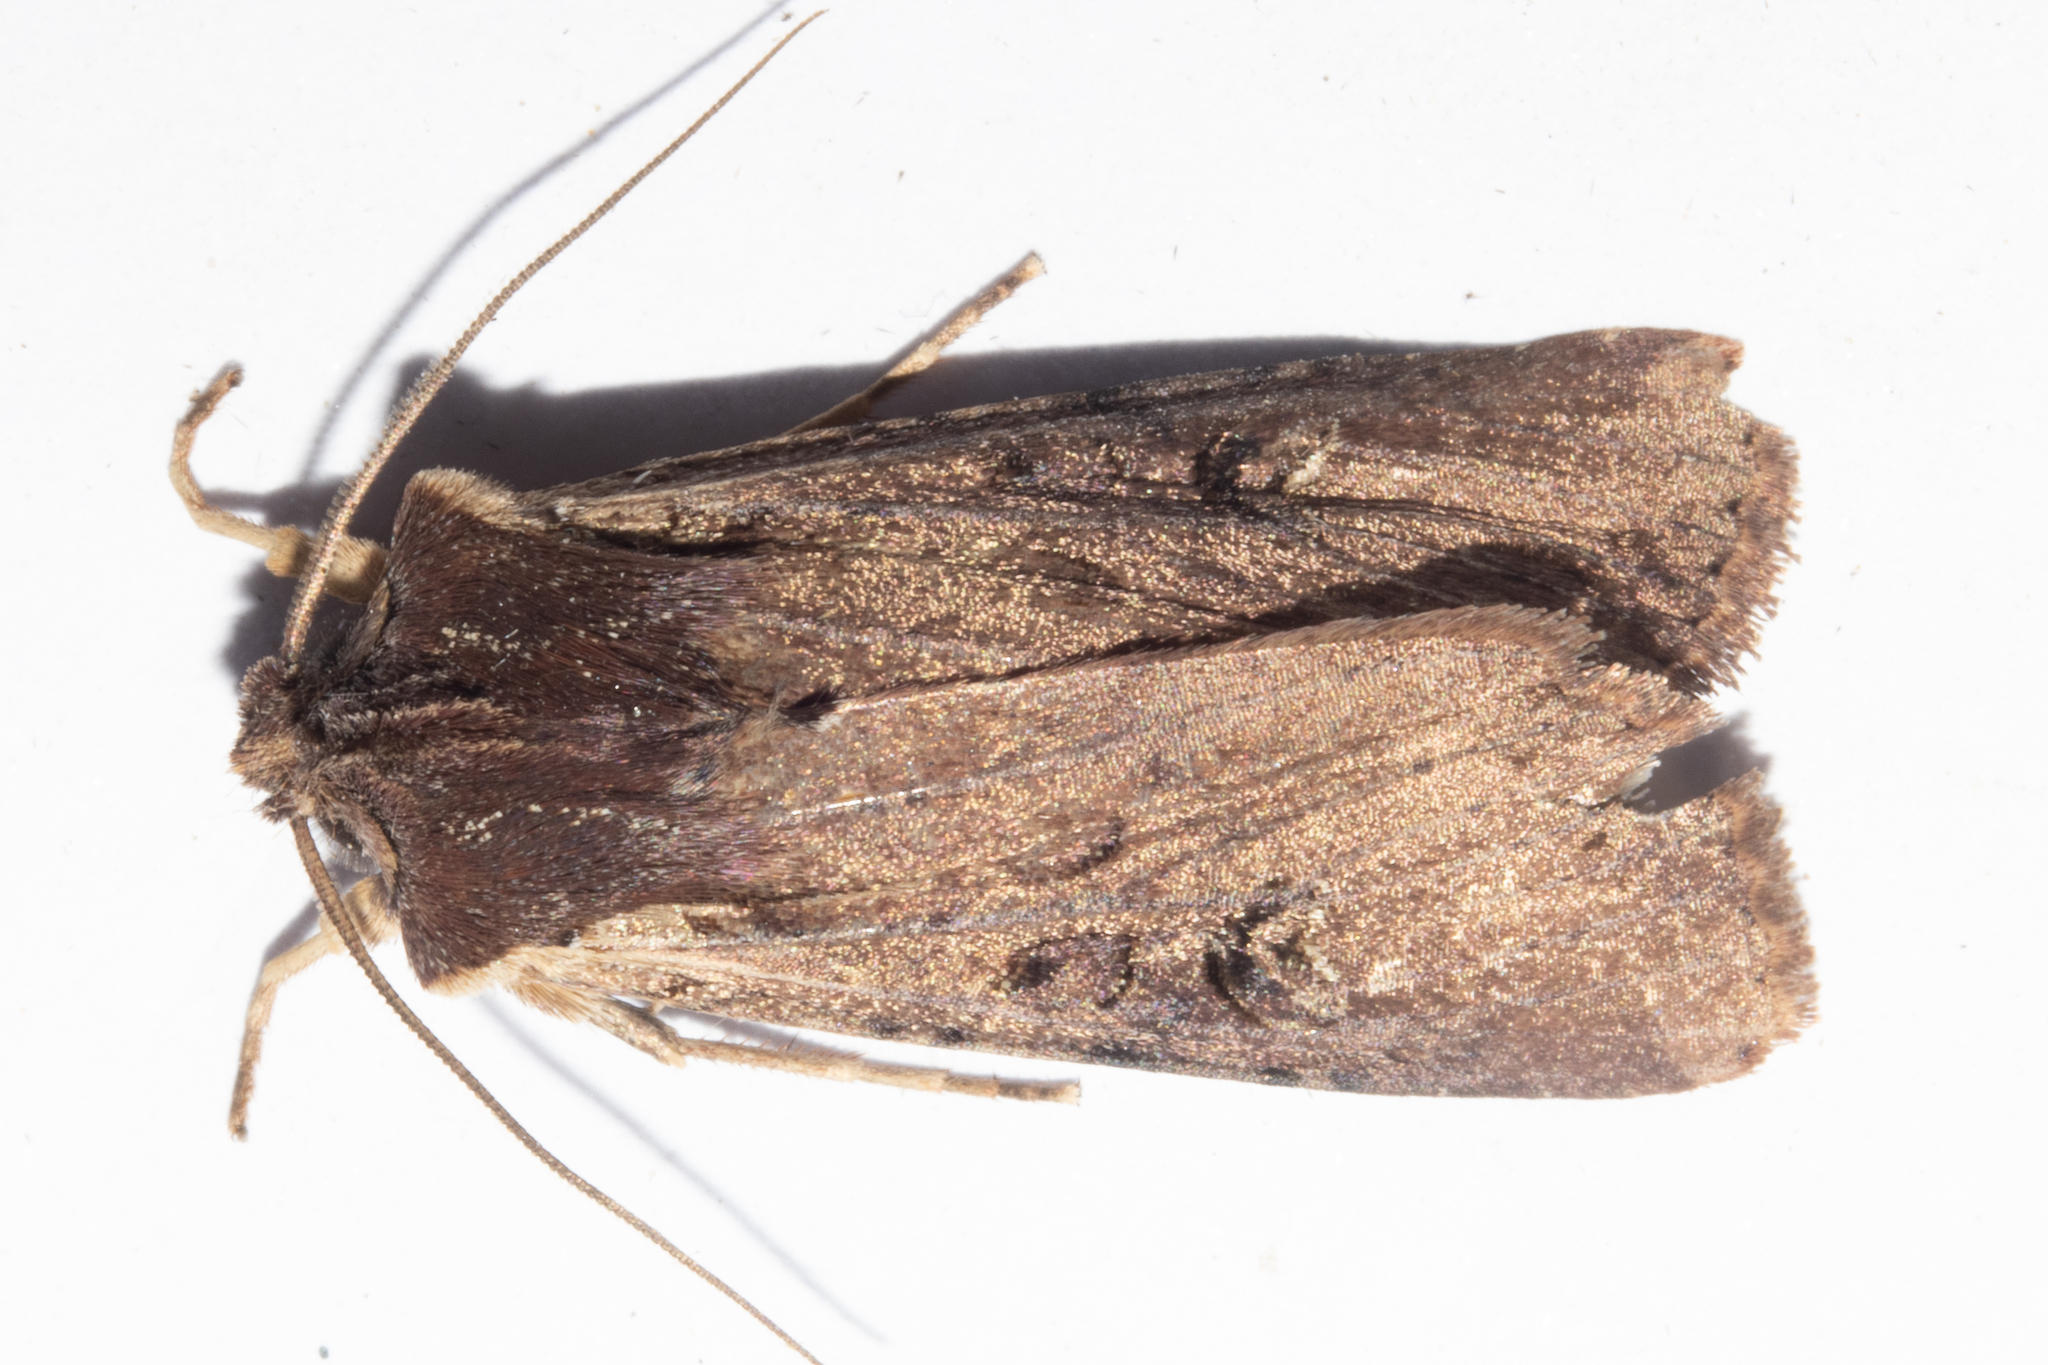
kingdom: Animalia
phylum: Arthropoda
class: Insecta
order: Lepidoptera
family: Noctuidae
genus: Ichneutica
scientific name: Ichneutica omoplaca
